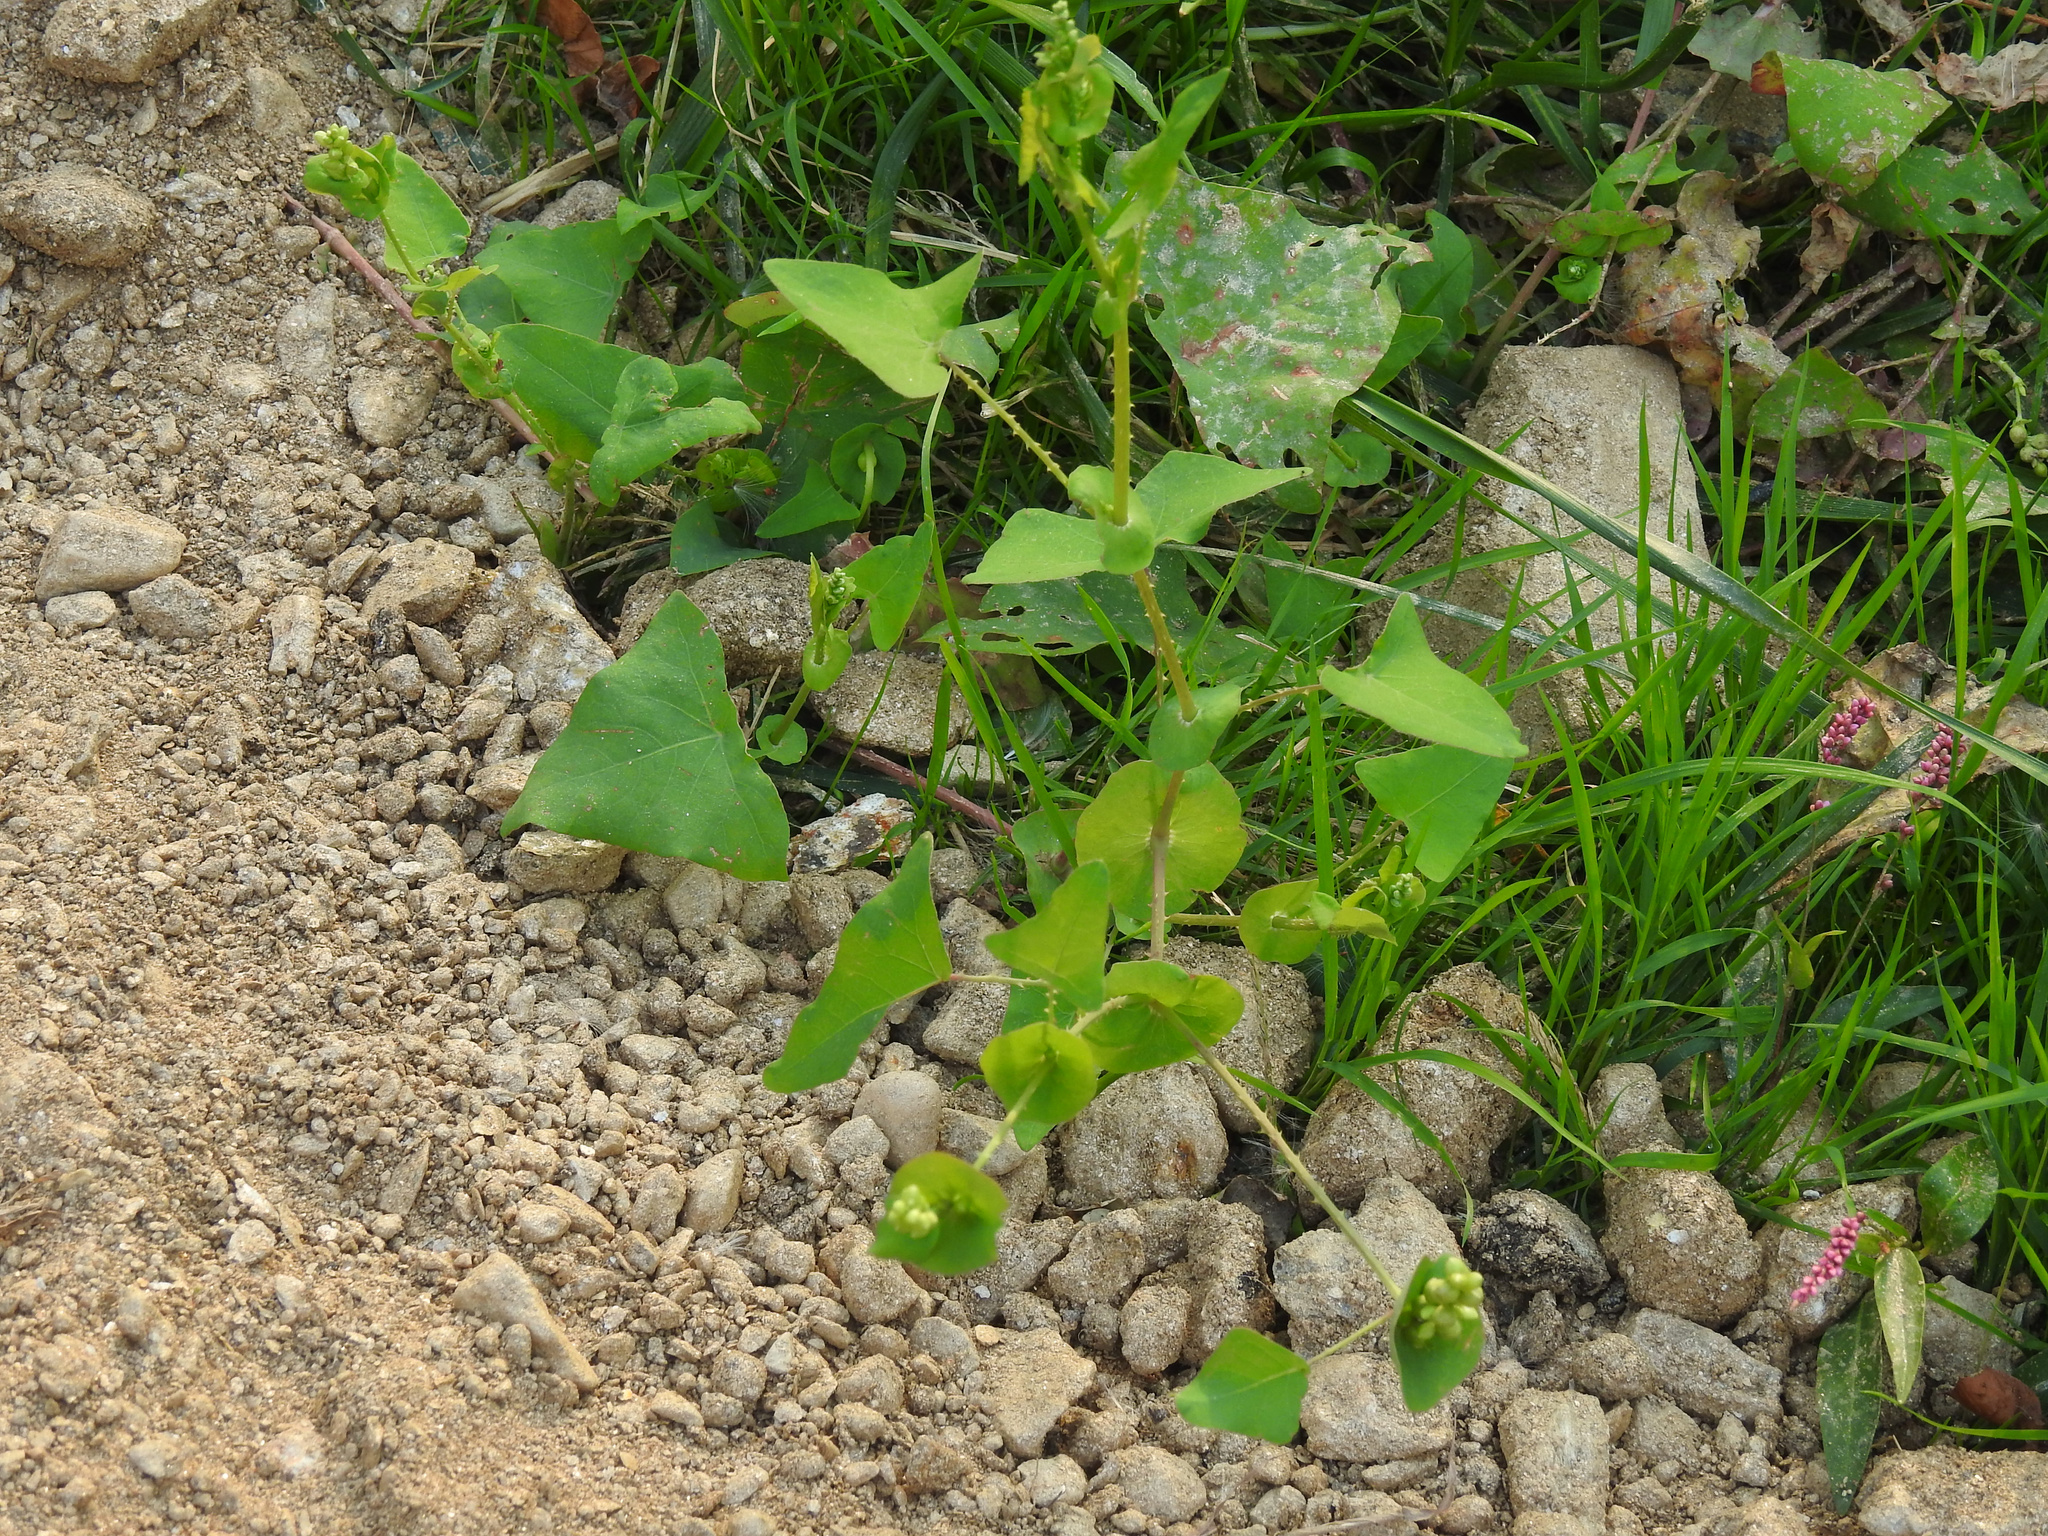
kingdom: Plantae
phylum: Tracheophyta
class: Magnoliopsida
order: Caryophyllales
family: Polygonaceae
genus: Persicaria
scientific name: Persicaria perfoliata
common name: Asiatic tearthumb
